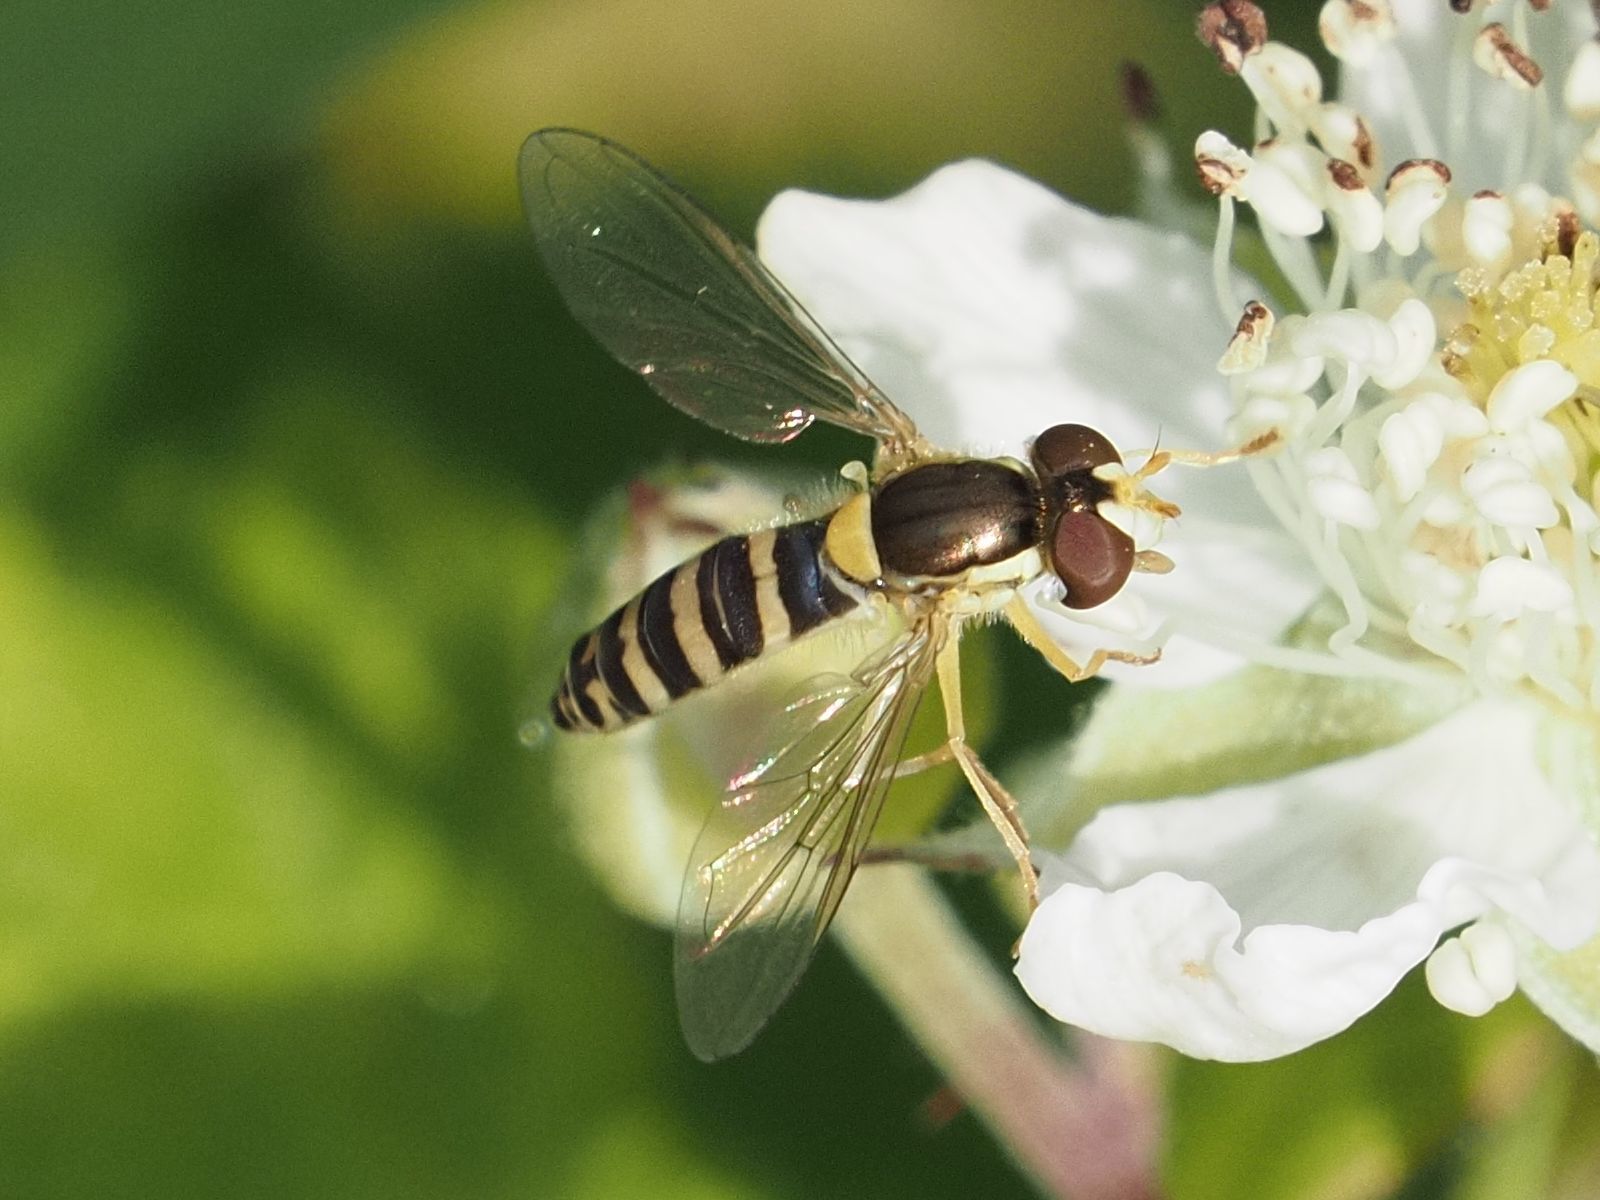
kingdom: Animalia
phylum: Arthropoda
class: Insecta
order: Diptera
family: Syrphidae
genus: Sphaerophoria
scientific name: Sphaerophoria
